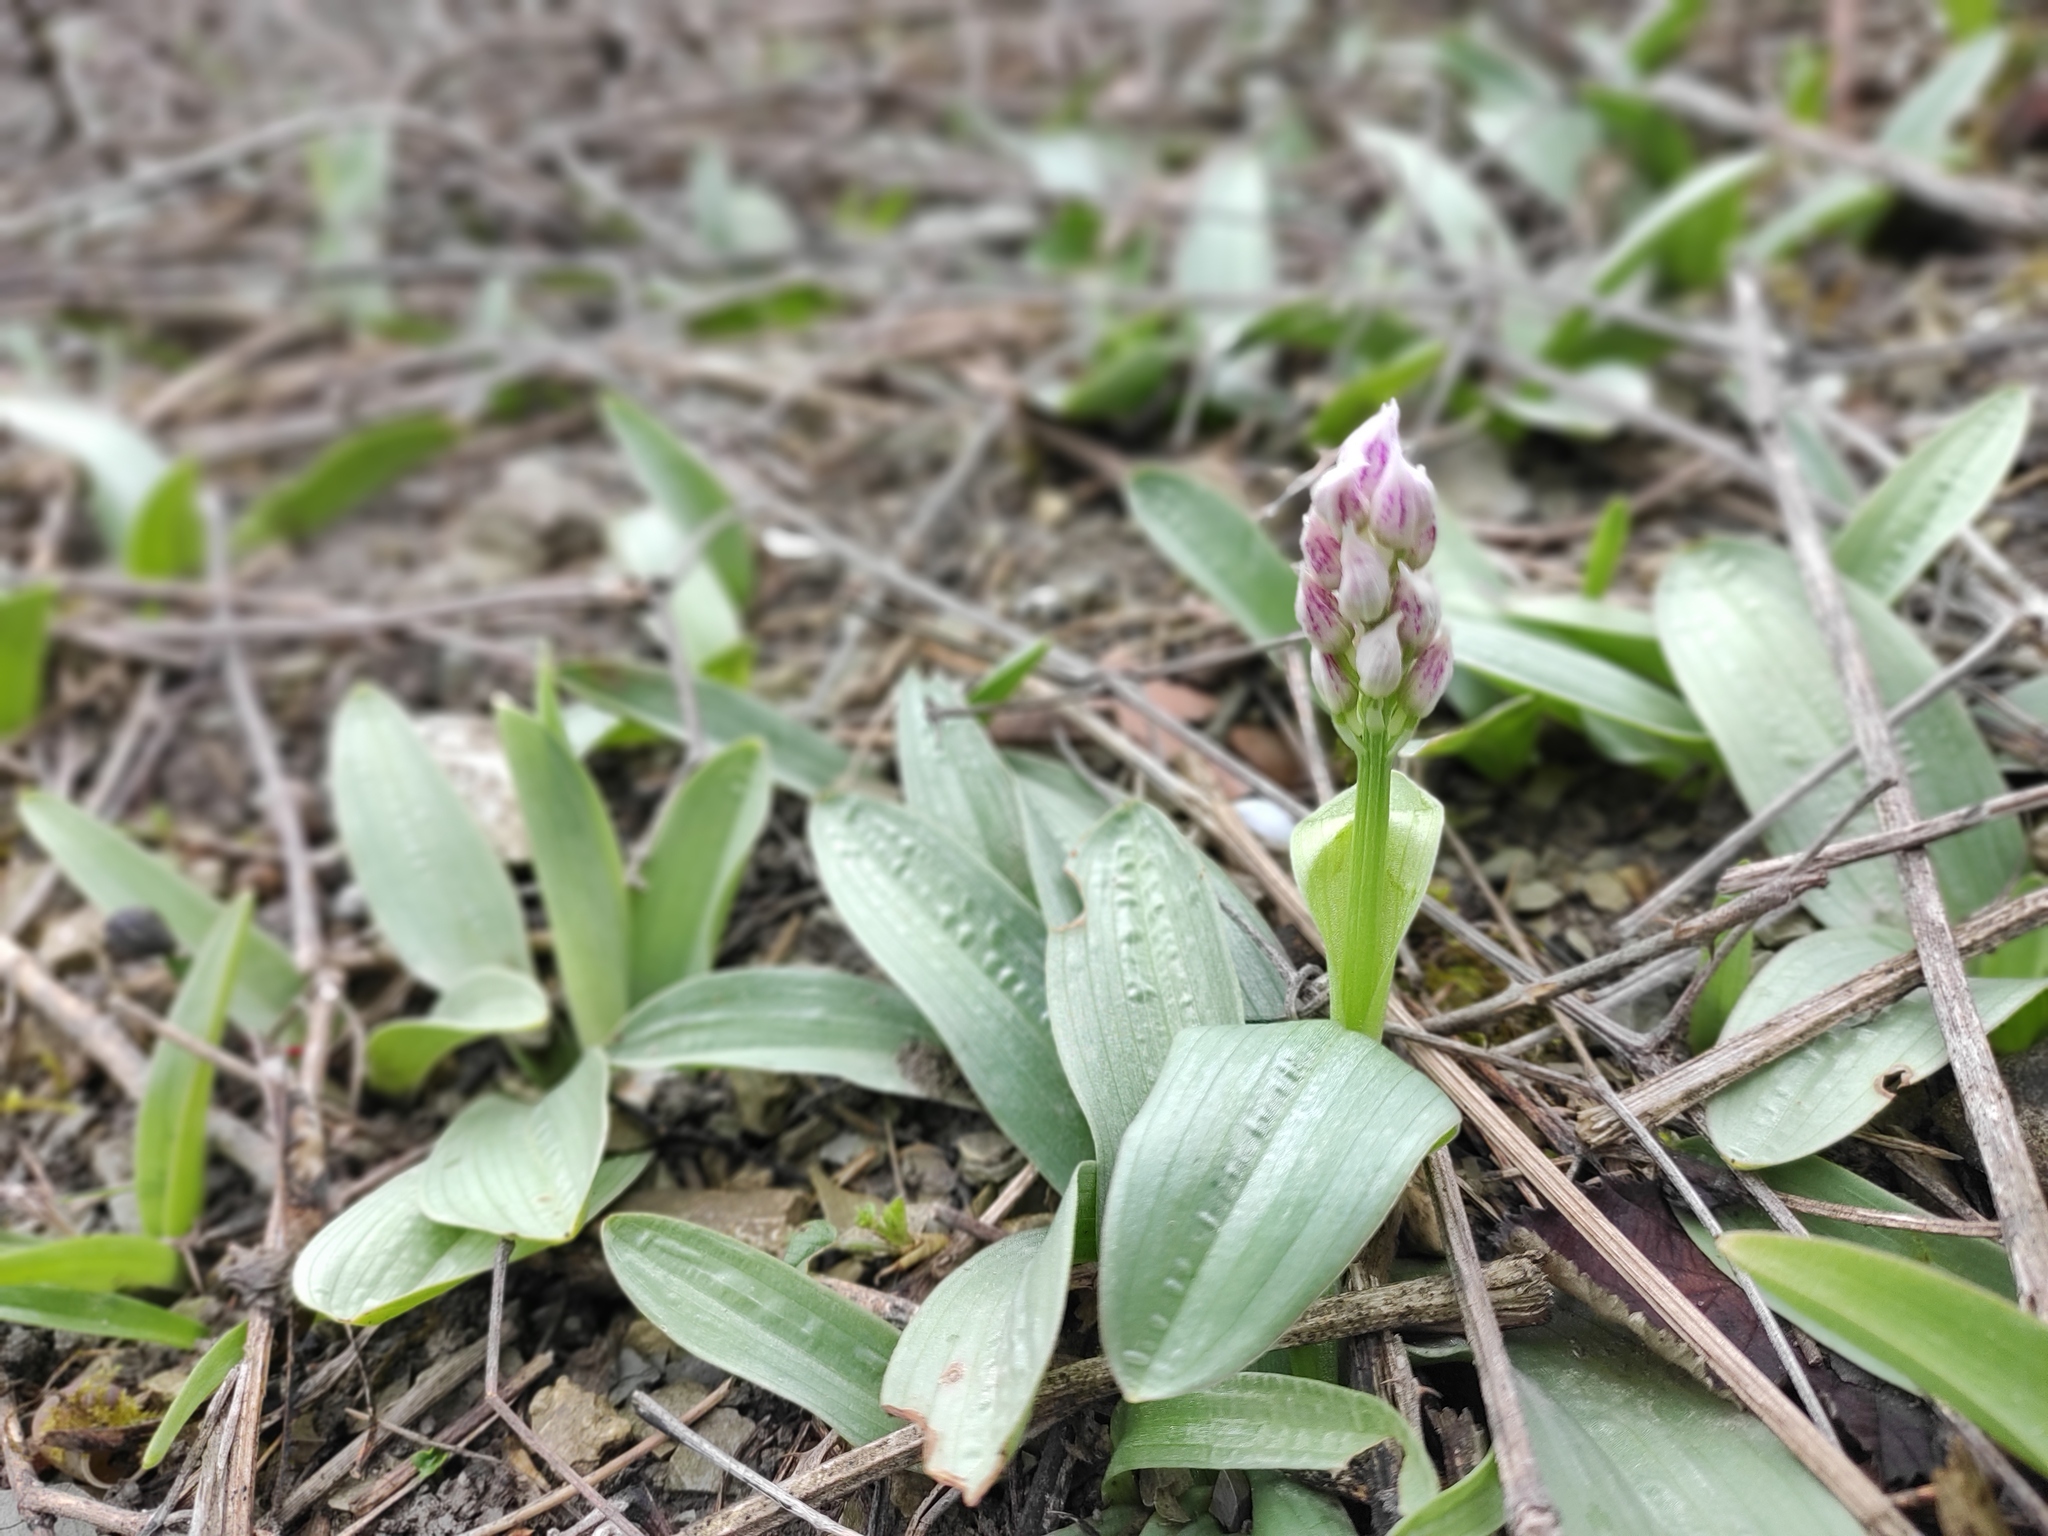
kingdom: Plantae
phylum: Tracheophyta
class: Liliopsida
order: Asparagales
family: Orchidaceae
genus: Orchis
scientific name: Orchis simia
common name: Monkey orchid
